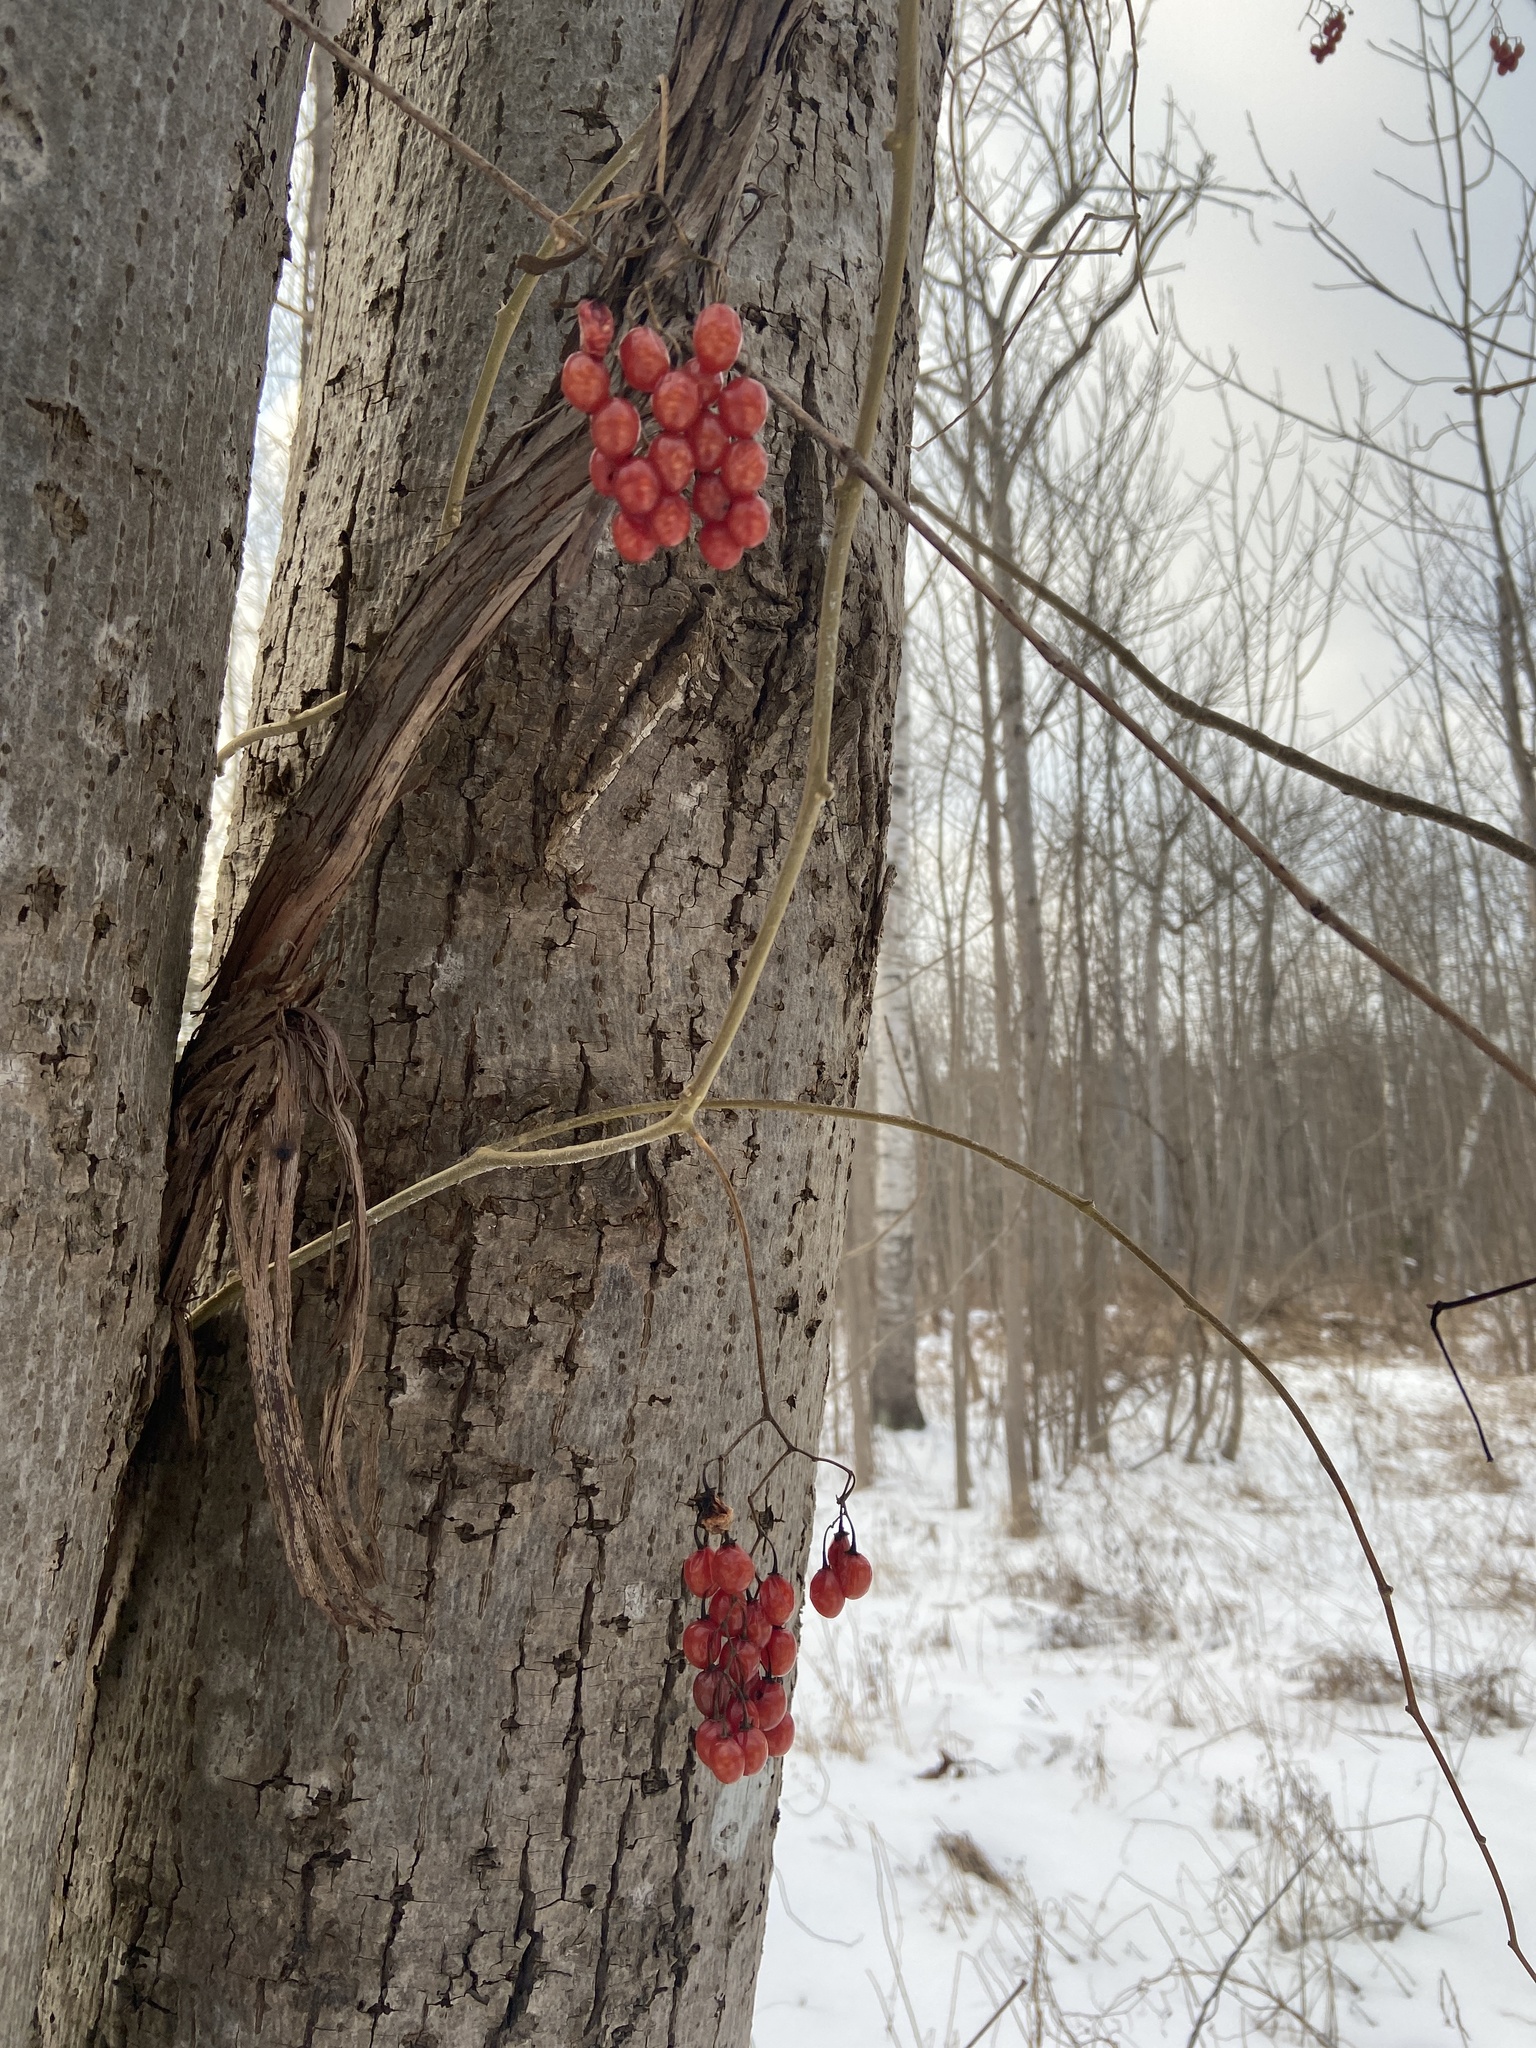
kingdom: Plantae
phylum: Tracheophyta
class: Magnoliopsida
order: Solanales
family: Solanaceae
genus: Solanum
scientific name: Solanum dulcamara
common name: Climbing nightshade
